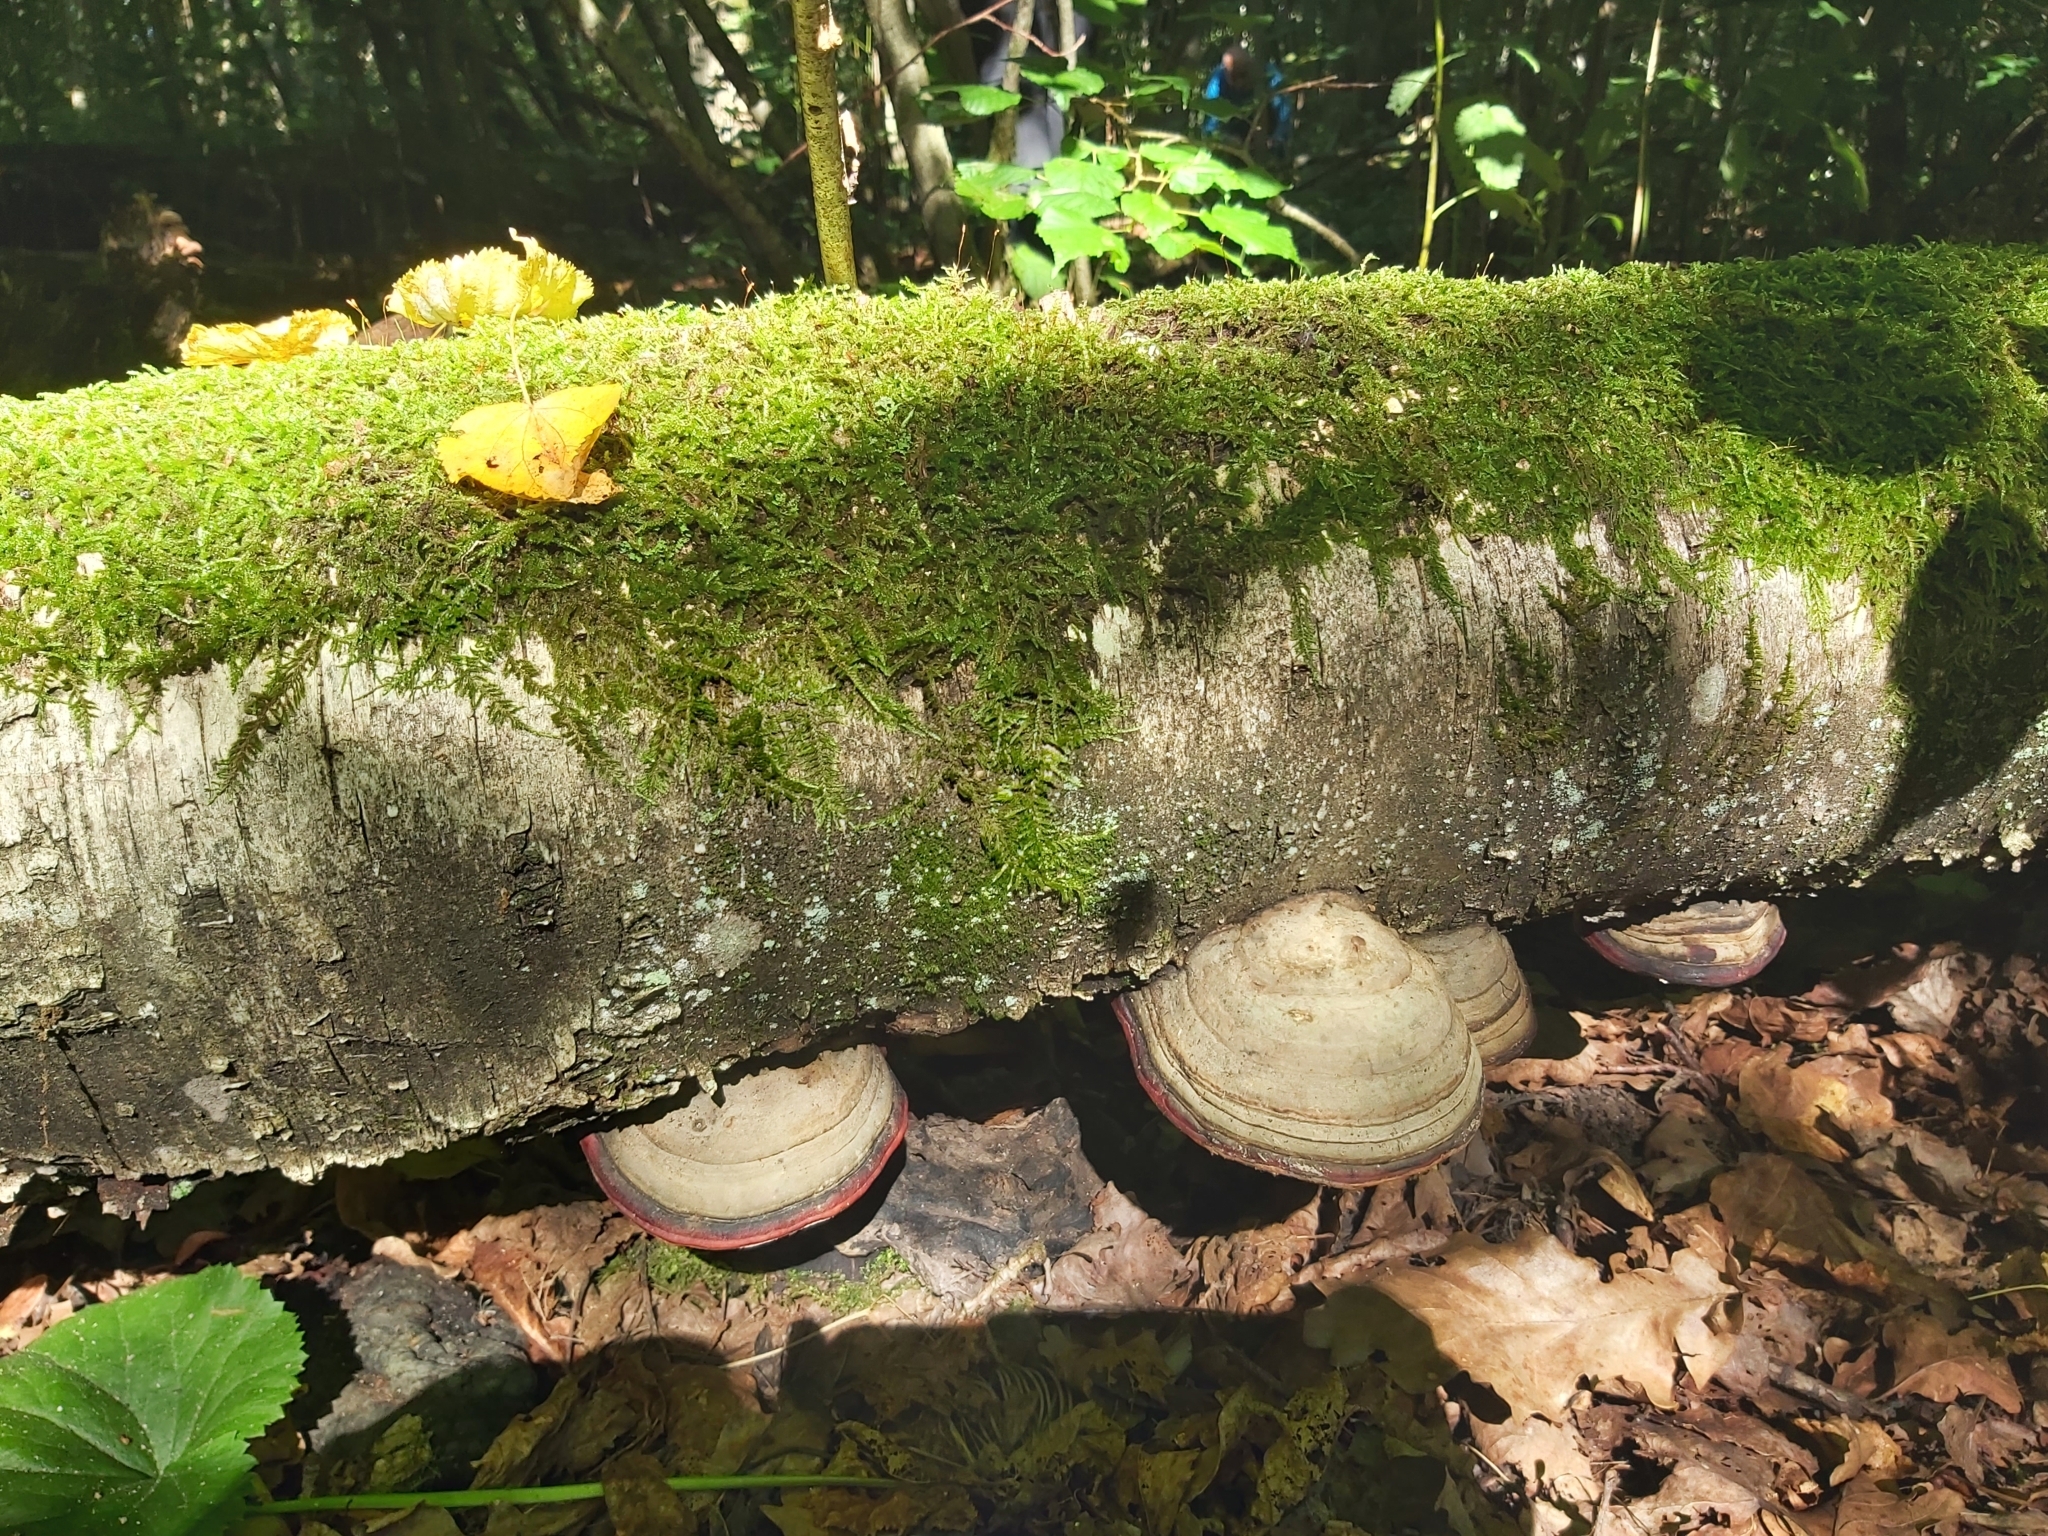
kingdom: Fungi
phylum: Basidiomycota
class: Agaricomycetes
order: Polyporales
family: Fomitopsidaceae
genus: Fomitopsis
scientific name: Fomitopsis pinicola
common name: Red-belted bracket
